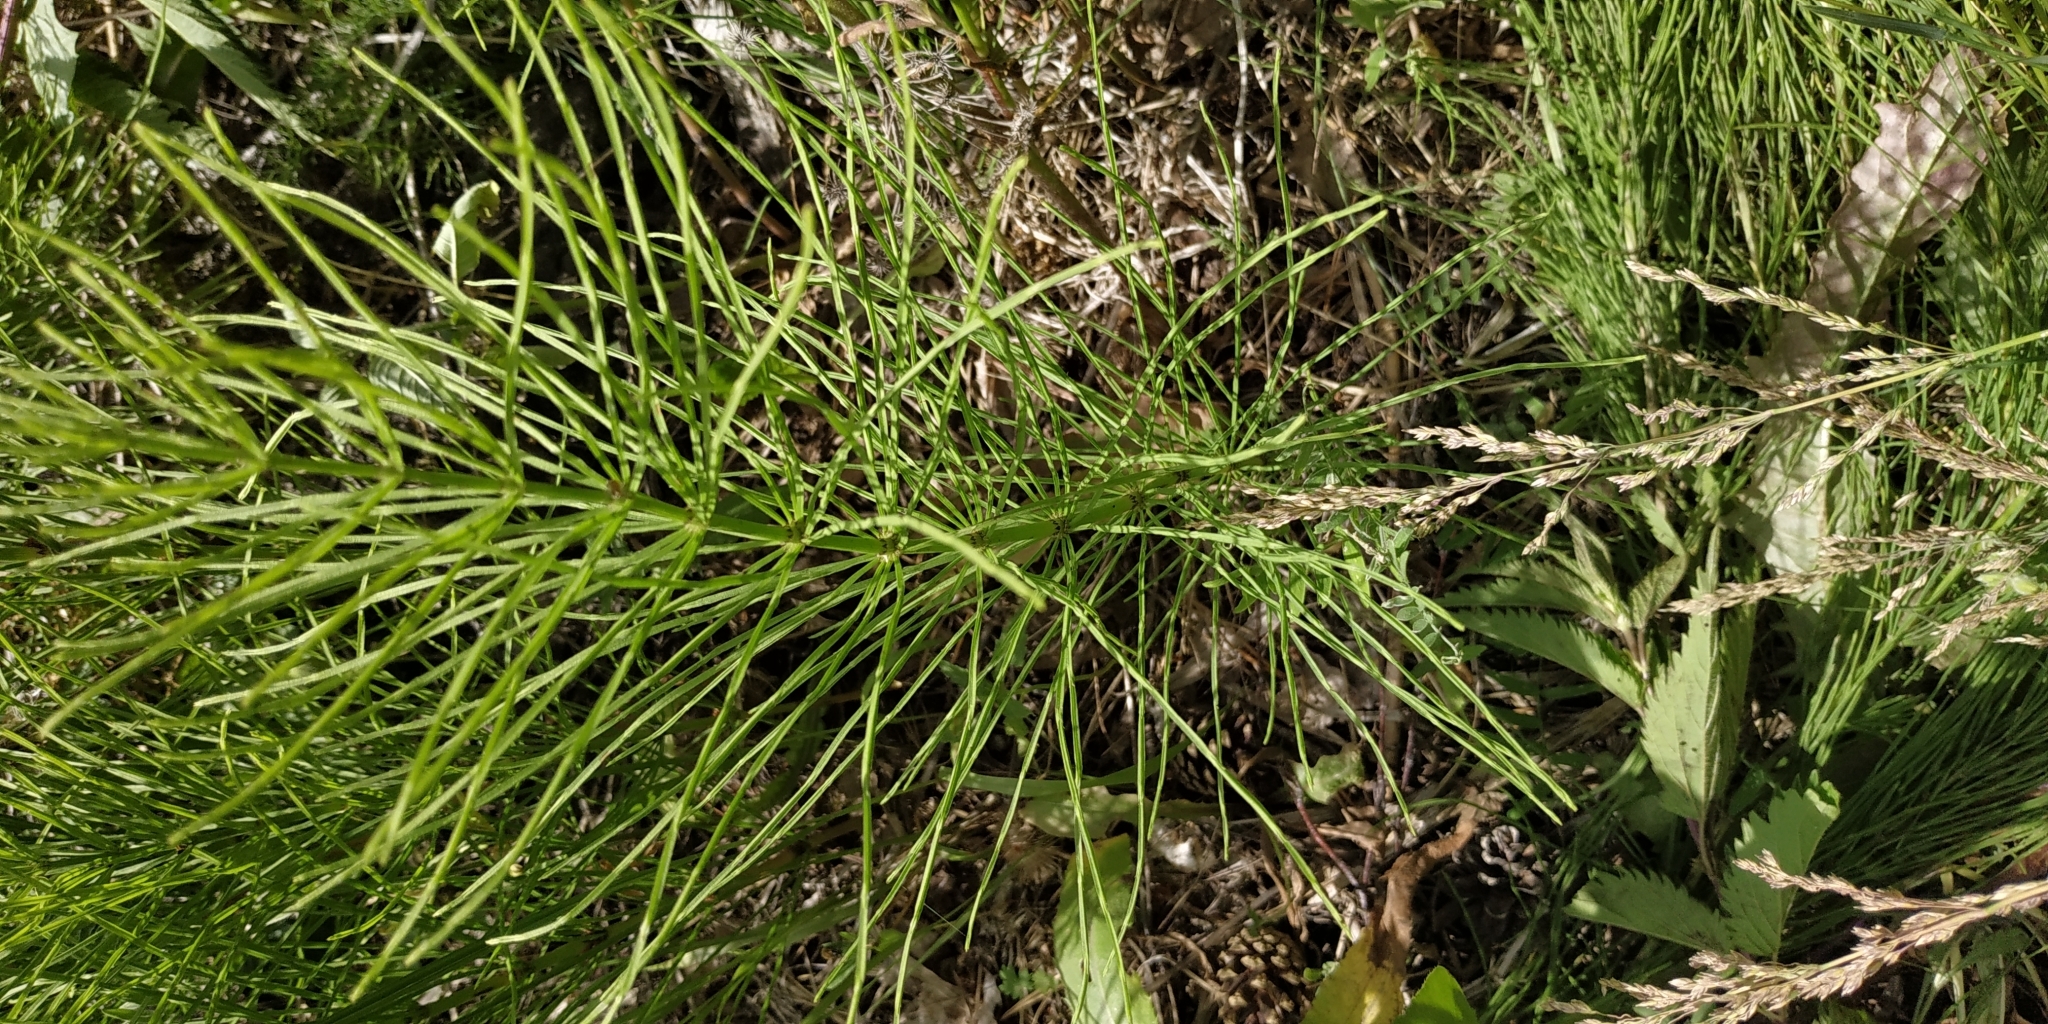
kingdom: Plantae
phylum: Tracheophyta
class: Polypodiopsida
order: Equisetales
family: Equisetaceae
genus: Equisetum
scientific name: Equisetum arvense
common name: Field horsetail
